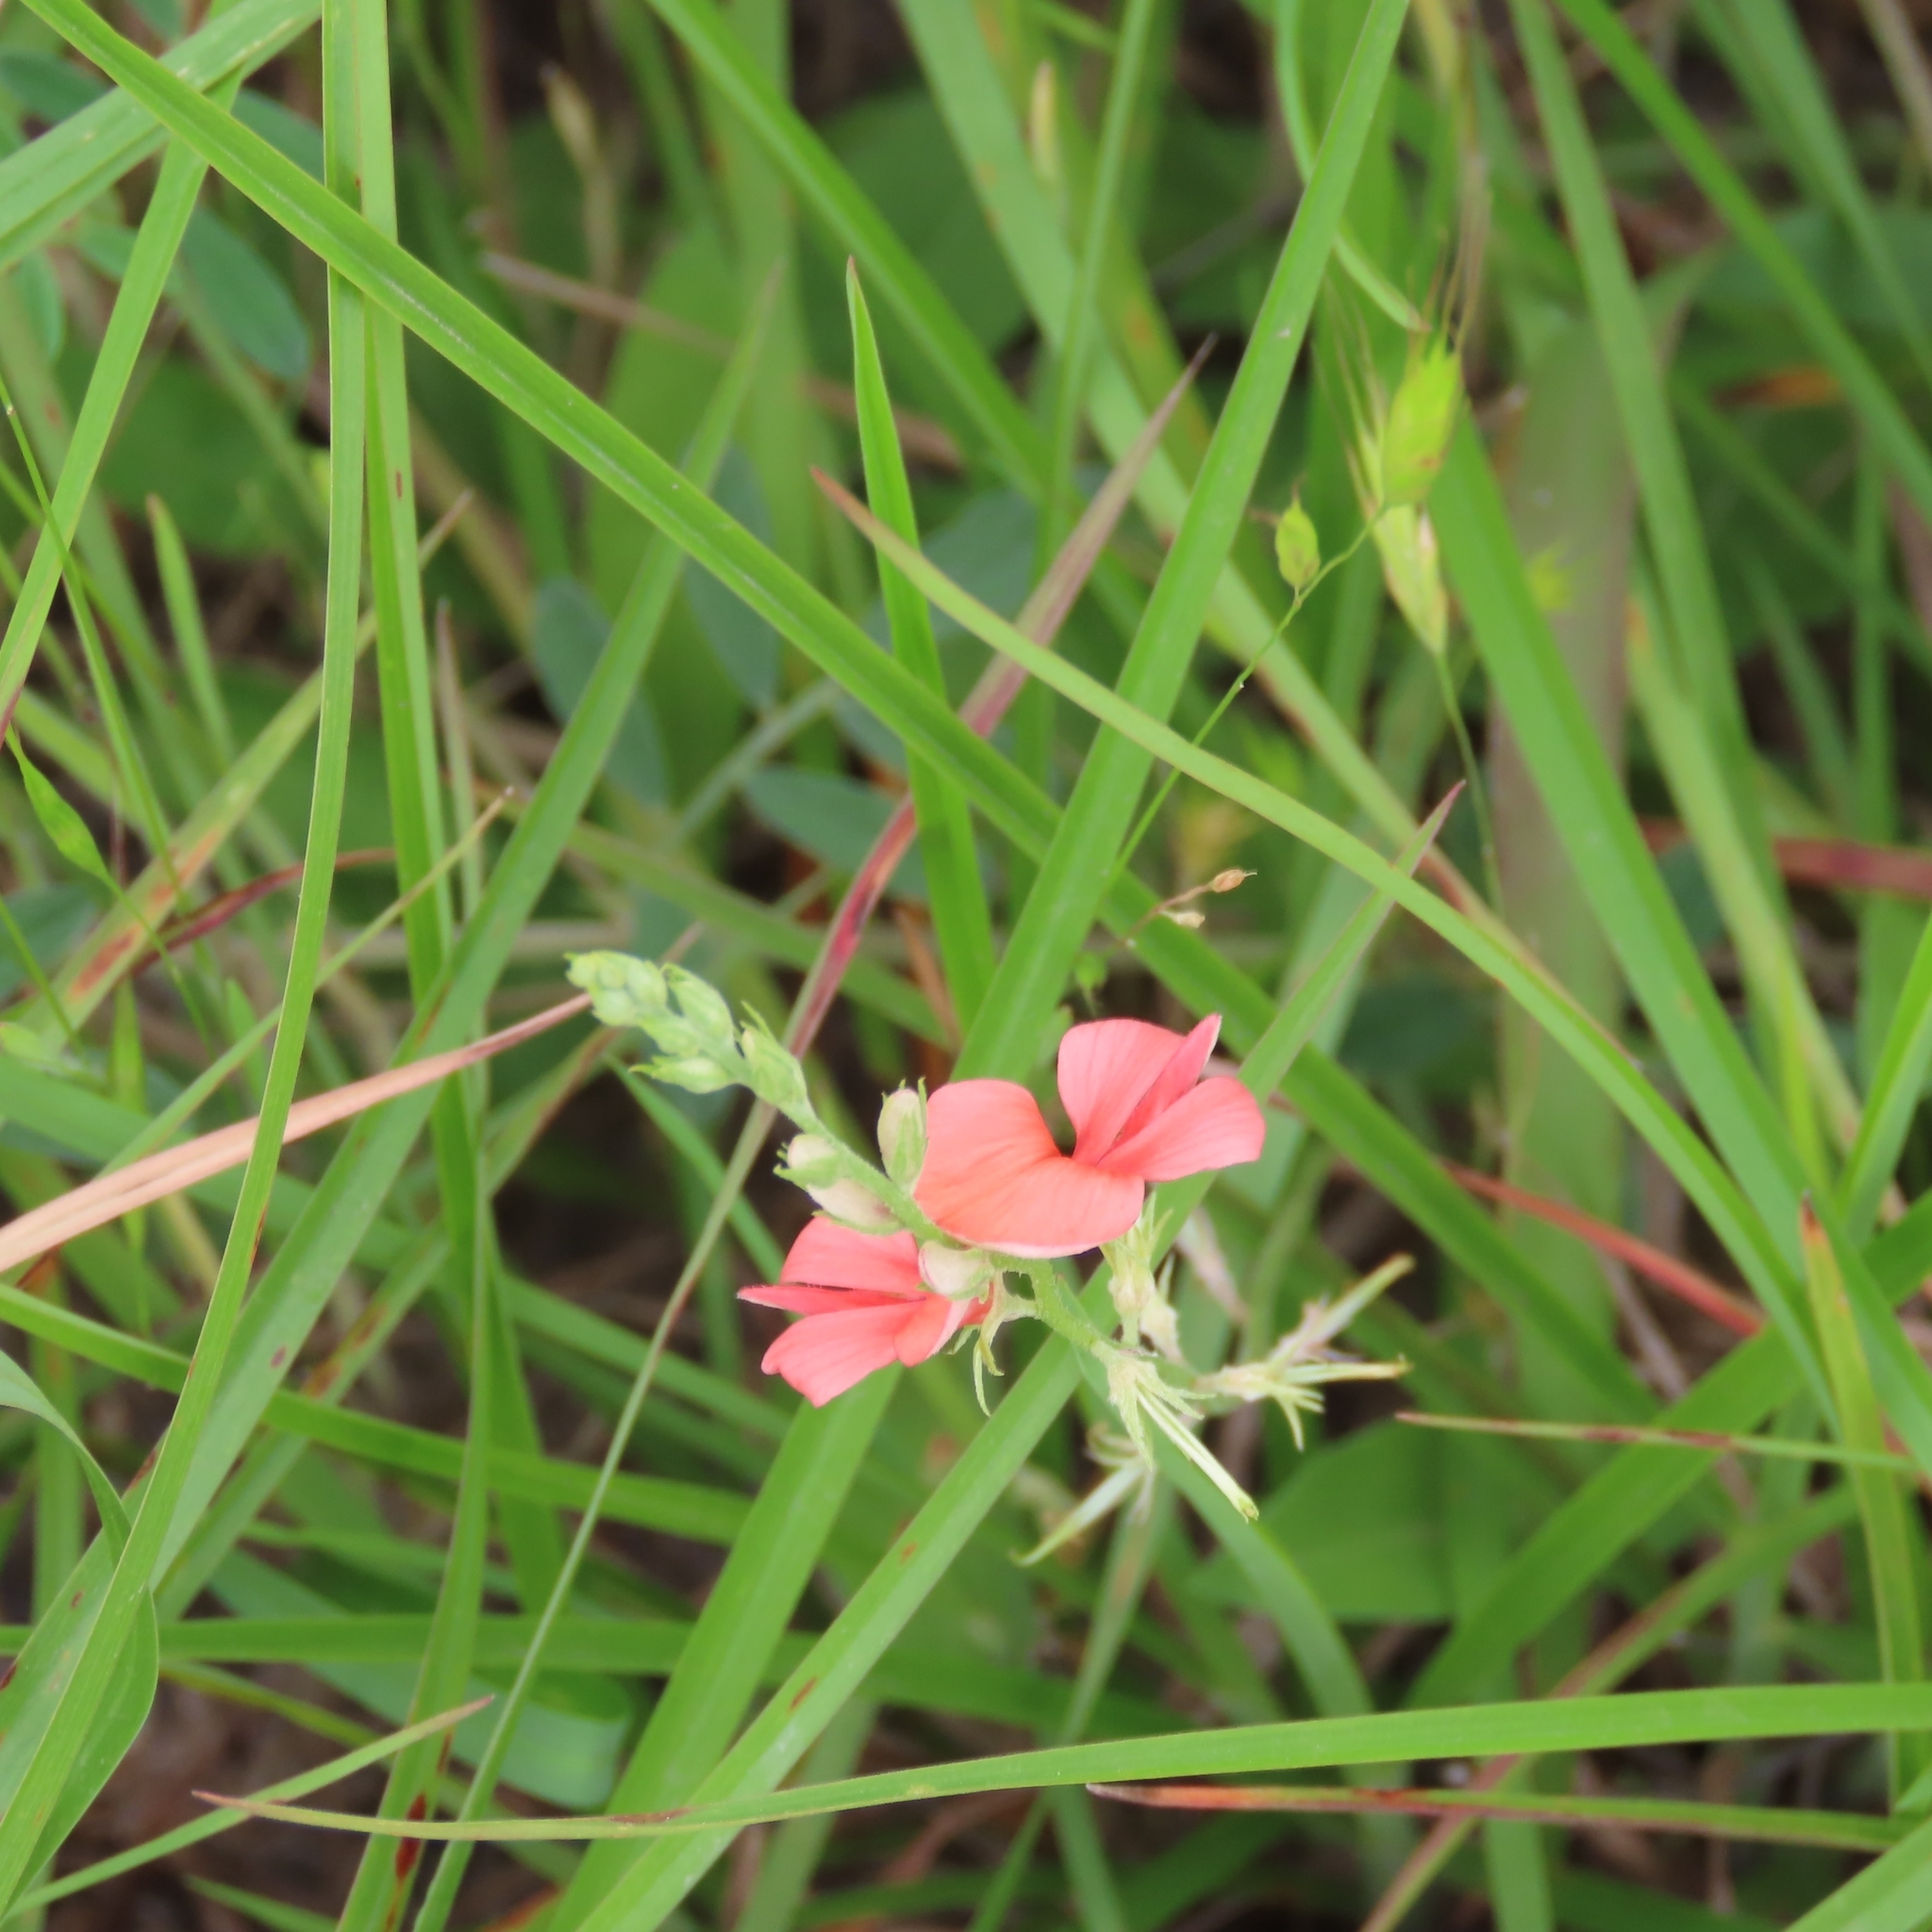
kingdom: Plantae
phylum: Tracheophyta
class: Magnoliopsida
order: Fabales
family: Fabaceae
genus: Indigofera
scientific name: Indigofera miniata
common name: Coast indigo
